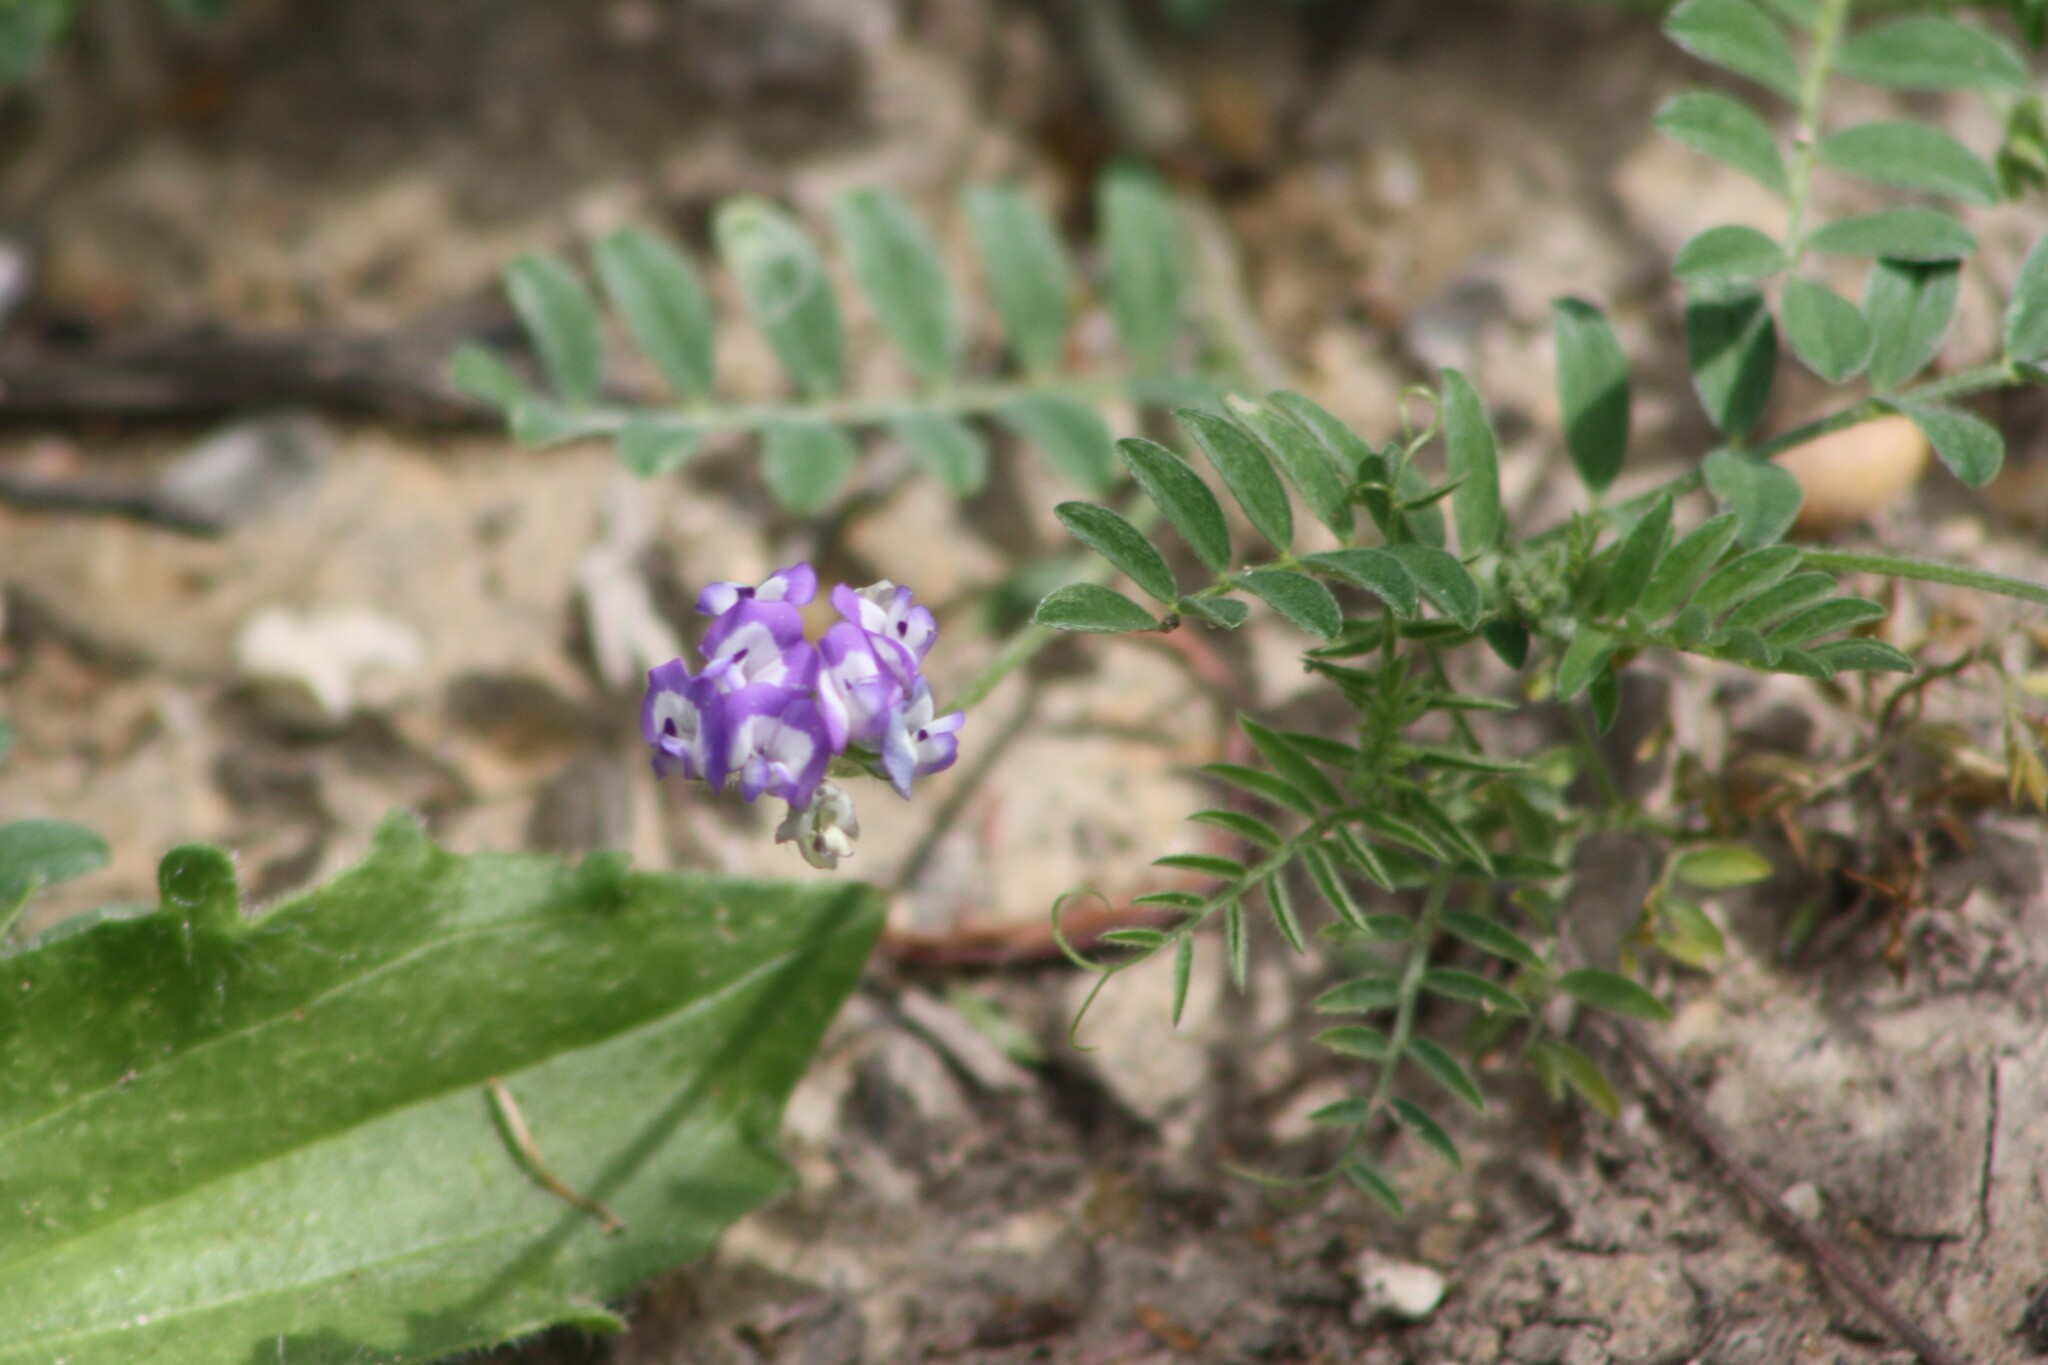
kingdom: Plantae
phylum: Tracheophyta
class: Magnoliopsida
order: Fabales
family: Fabaceae
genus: Astragalus
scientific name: Astragalus nuttallianus
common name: Smallflowered milkvetch
